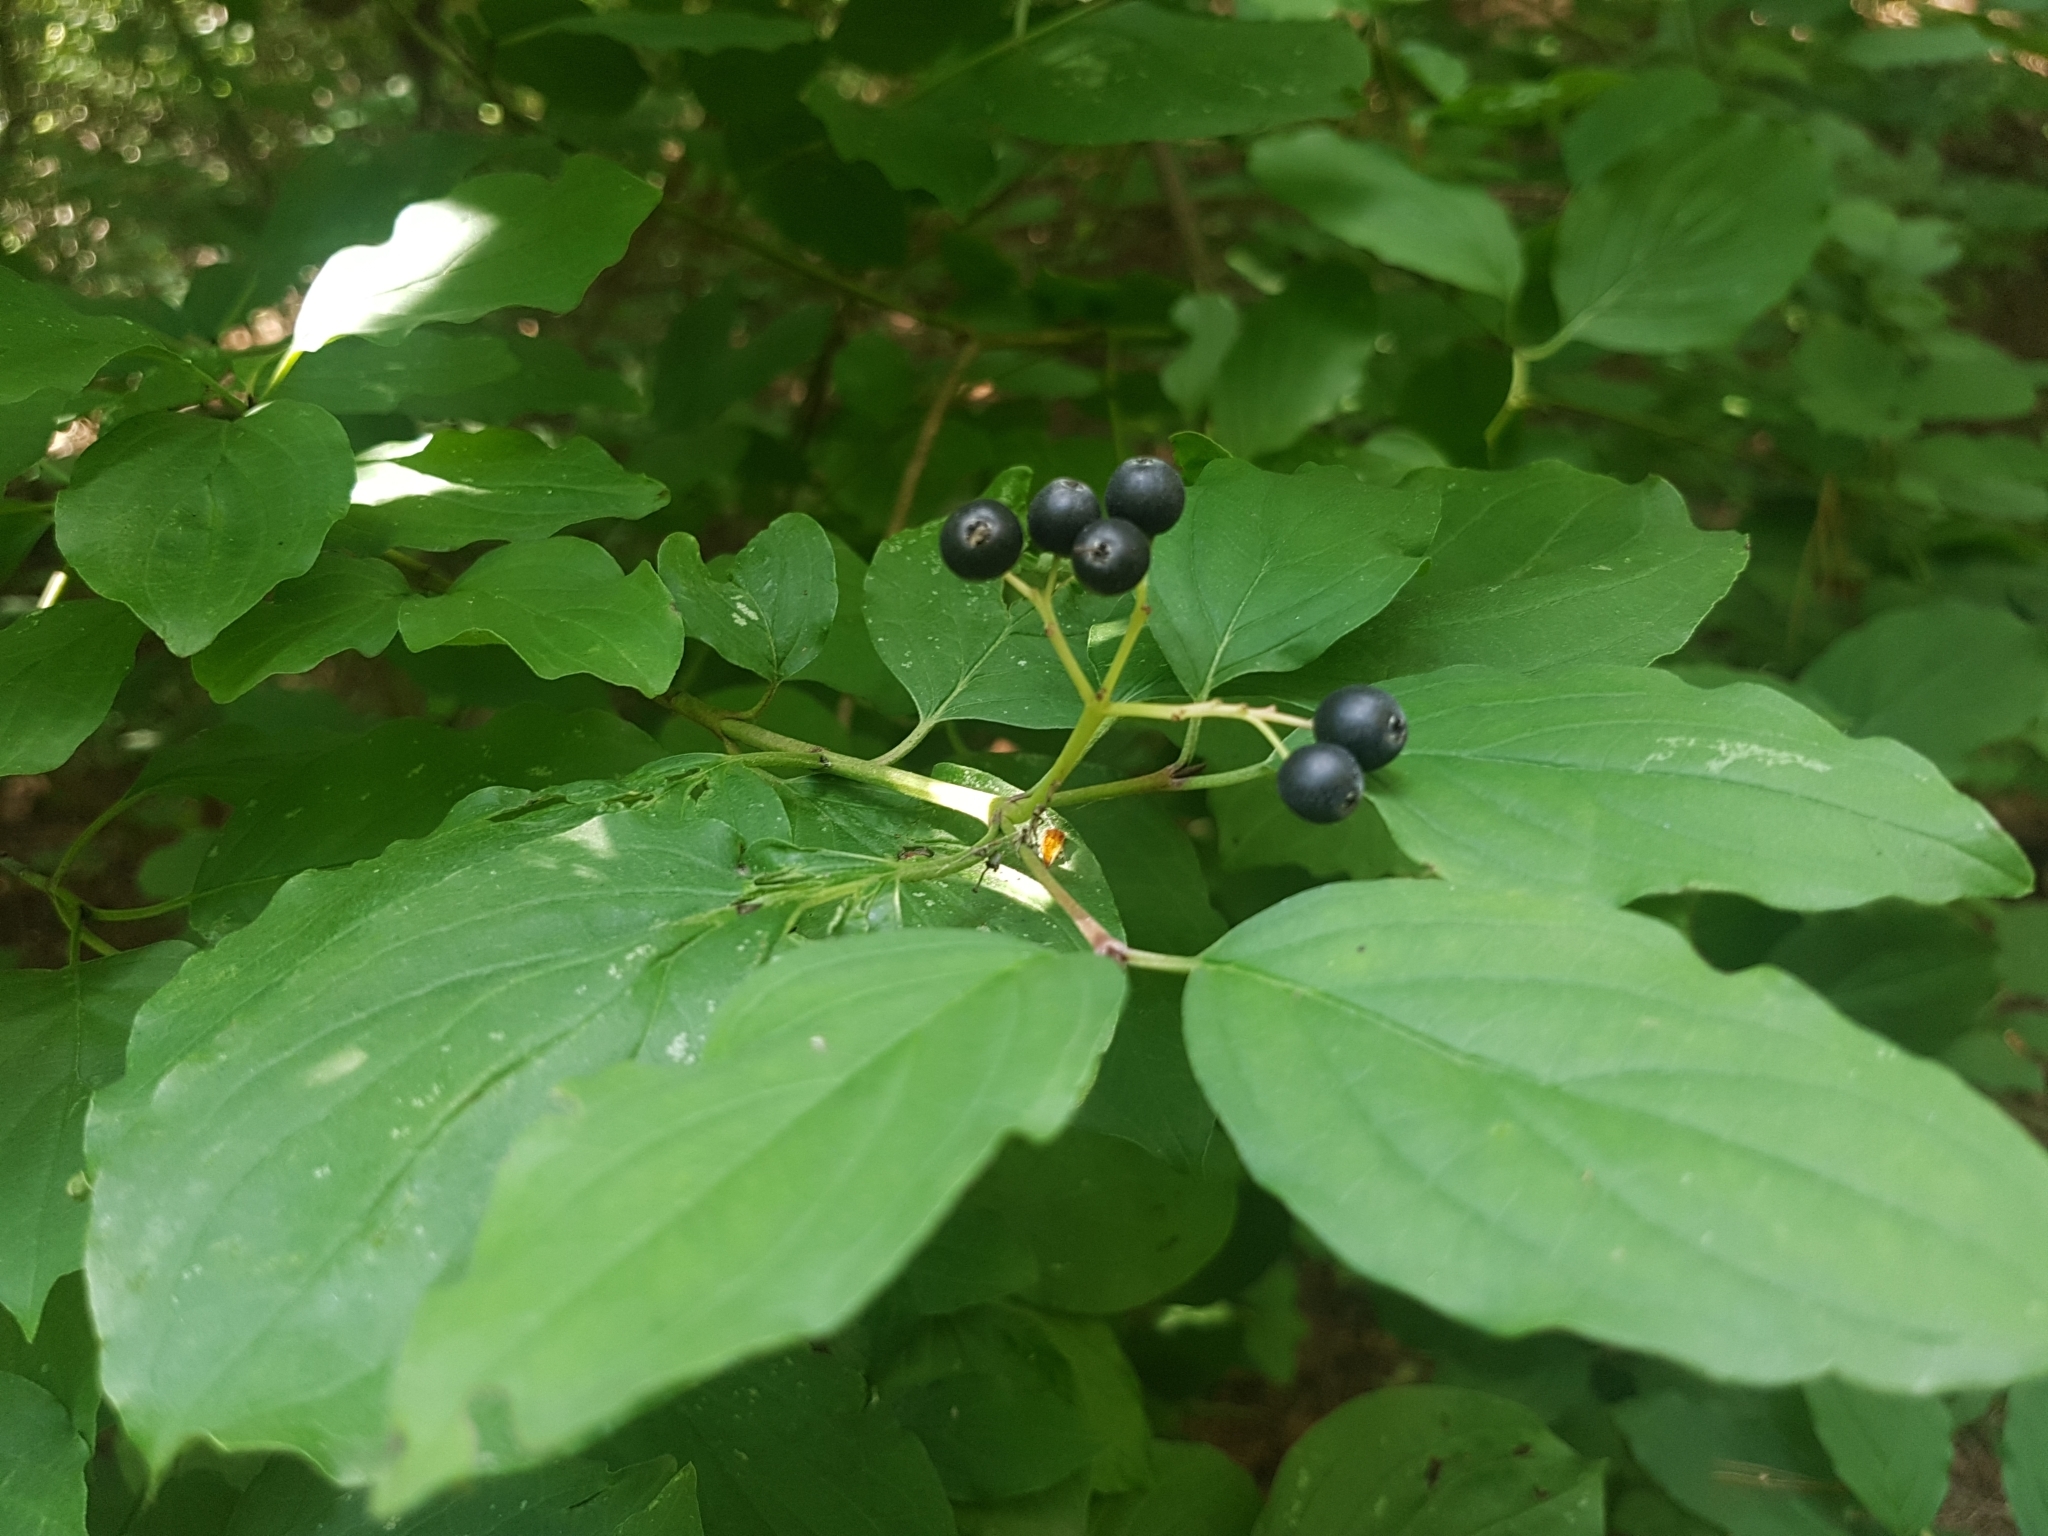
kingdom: Plantae
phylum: Tracheophyta
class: Magnoliopsida
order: Cornales
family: Cornaceae
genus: Cornus
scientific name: Cornus sanguinea
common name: Dogwood
